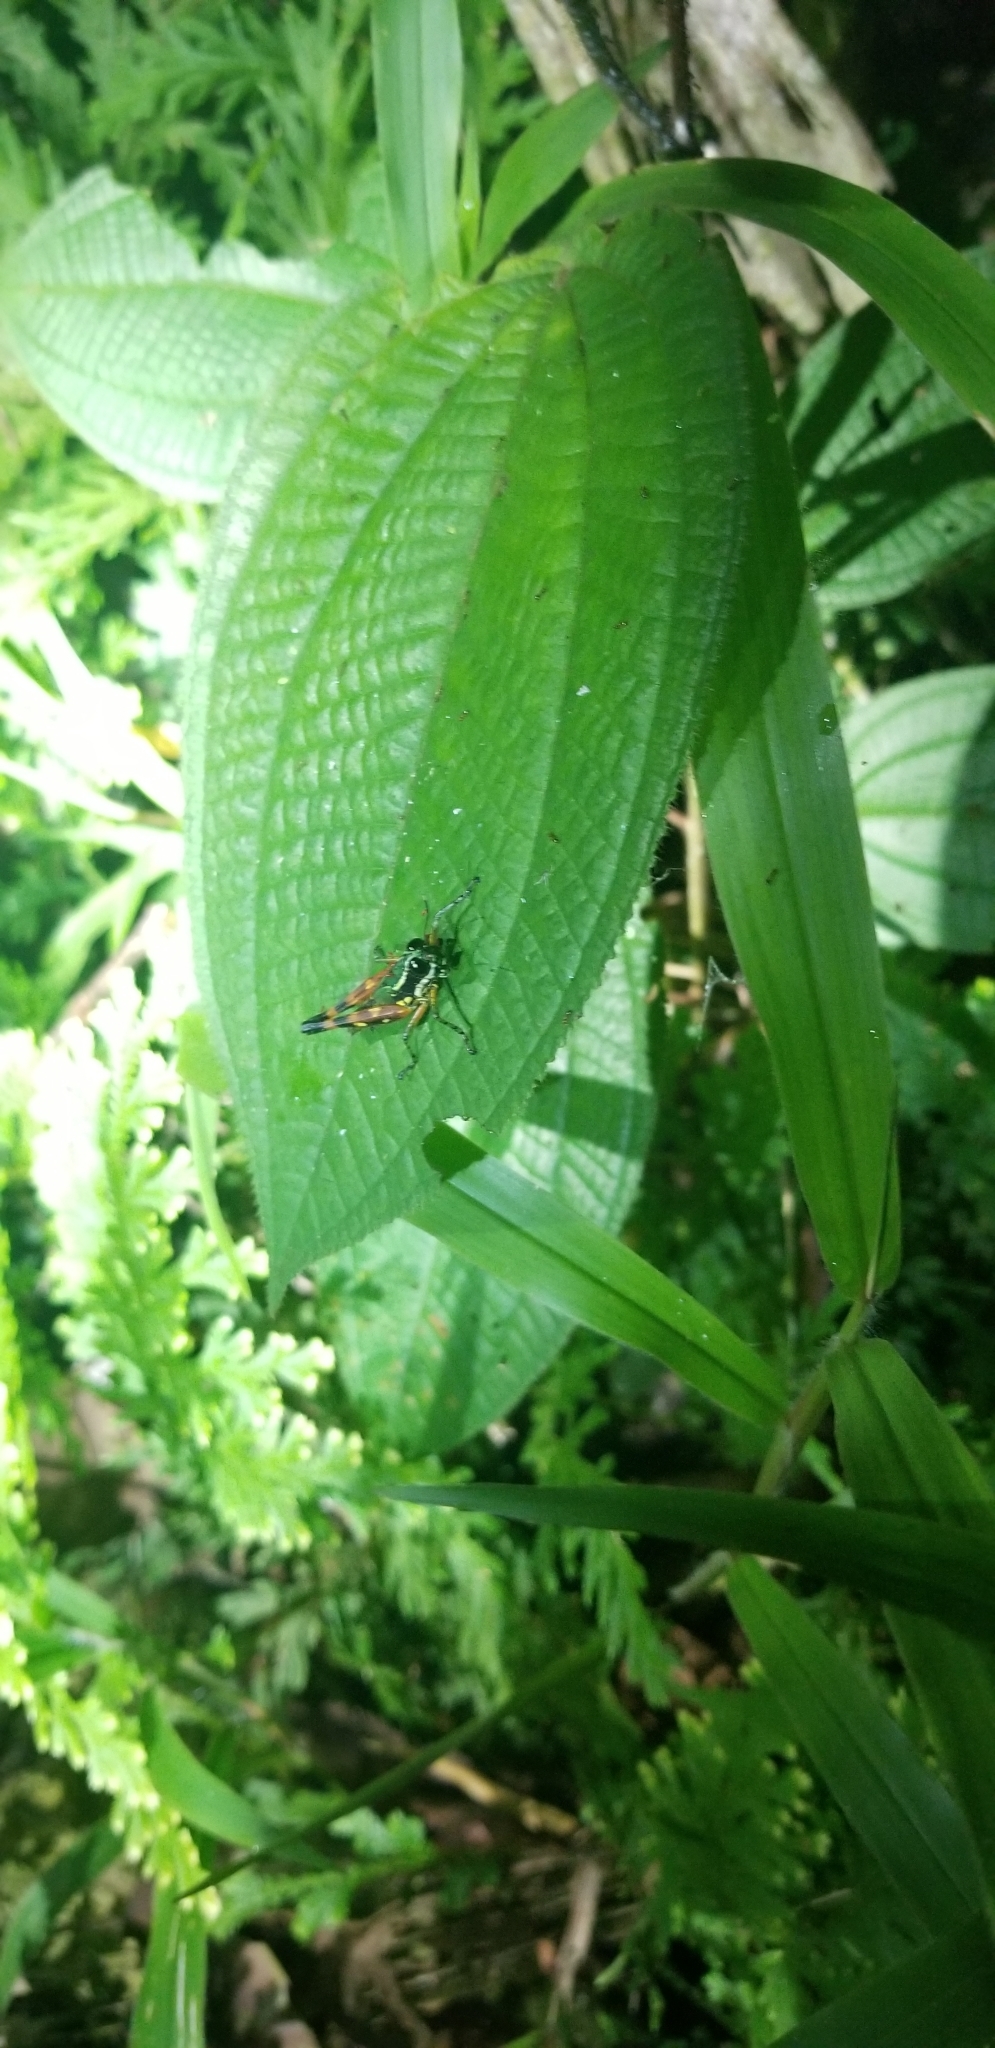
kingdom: Animalia
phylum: Arthropoda
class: Insecta
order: Orthoptera
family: Acrididae
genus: Tetrataenia
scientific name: Tetrataenia surinama
